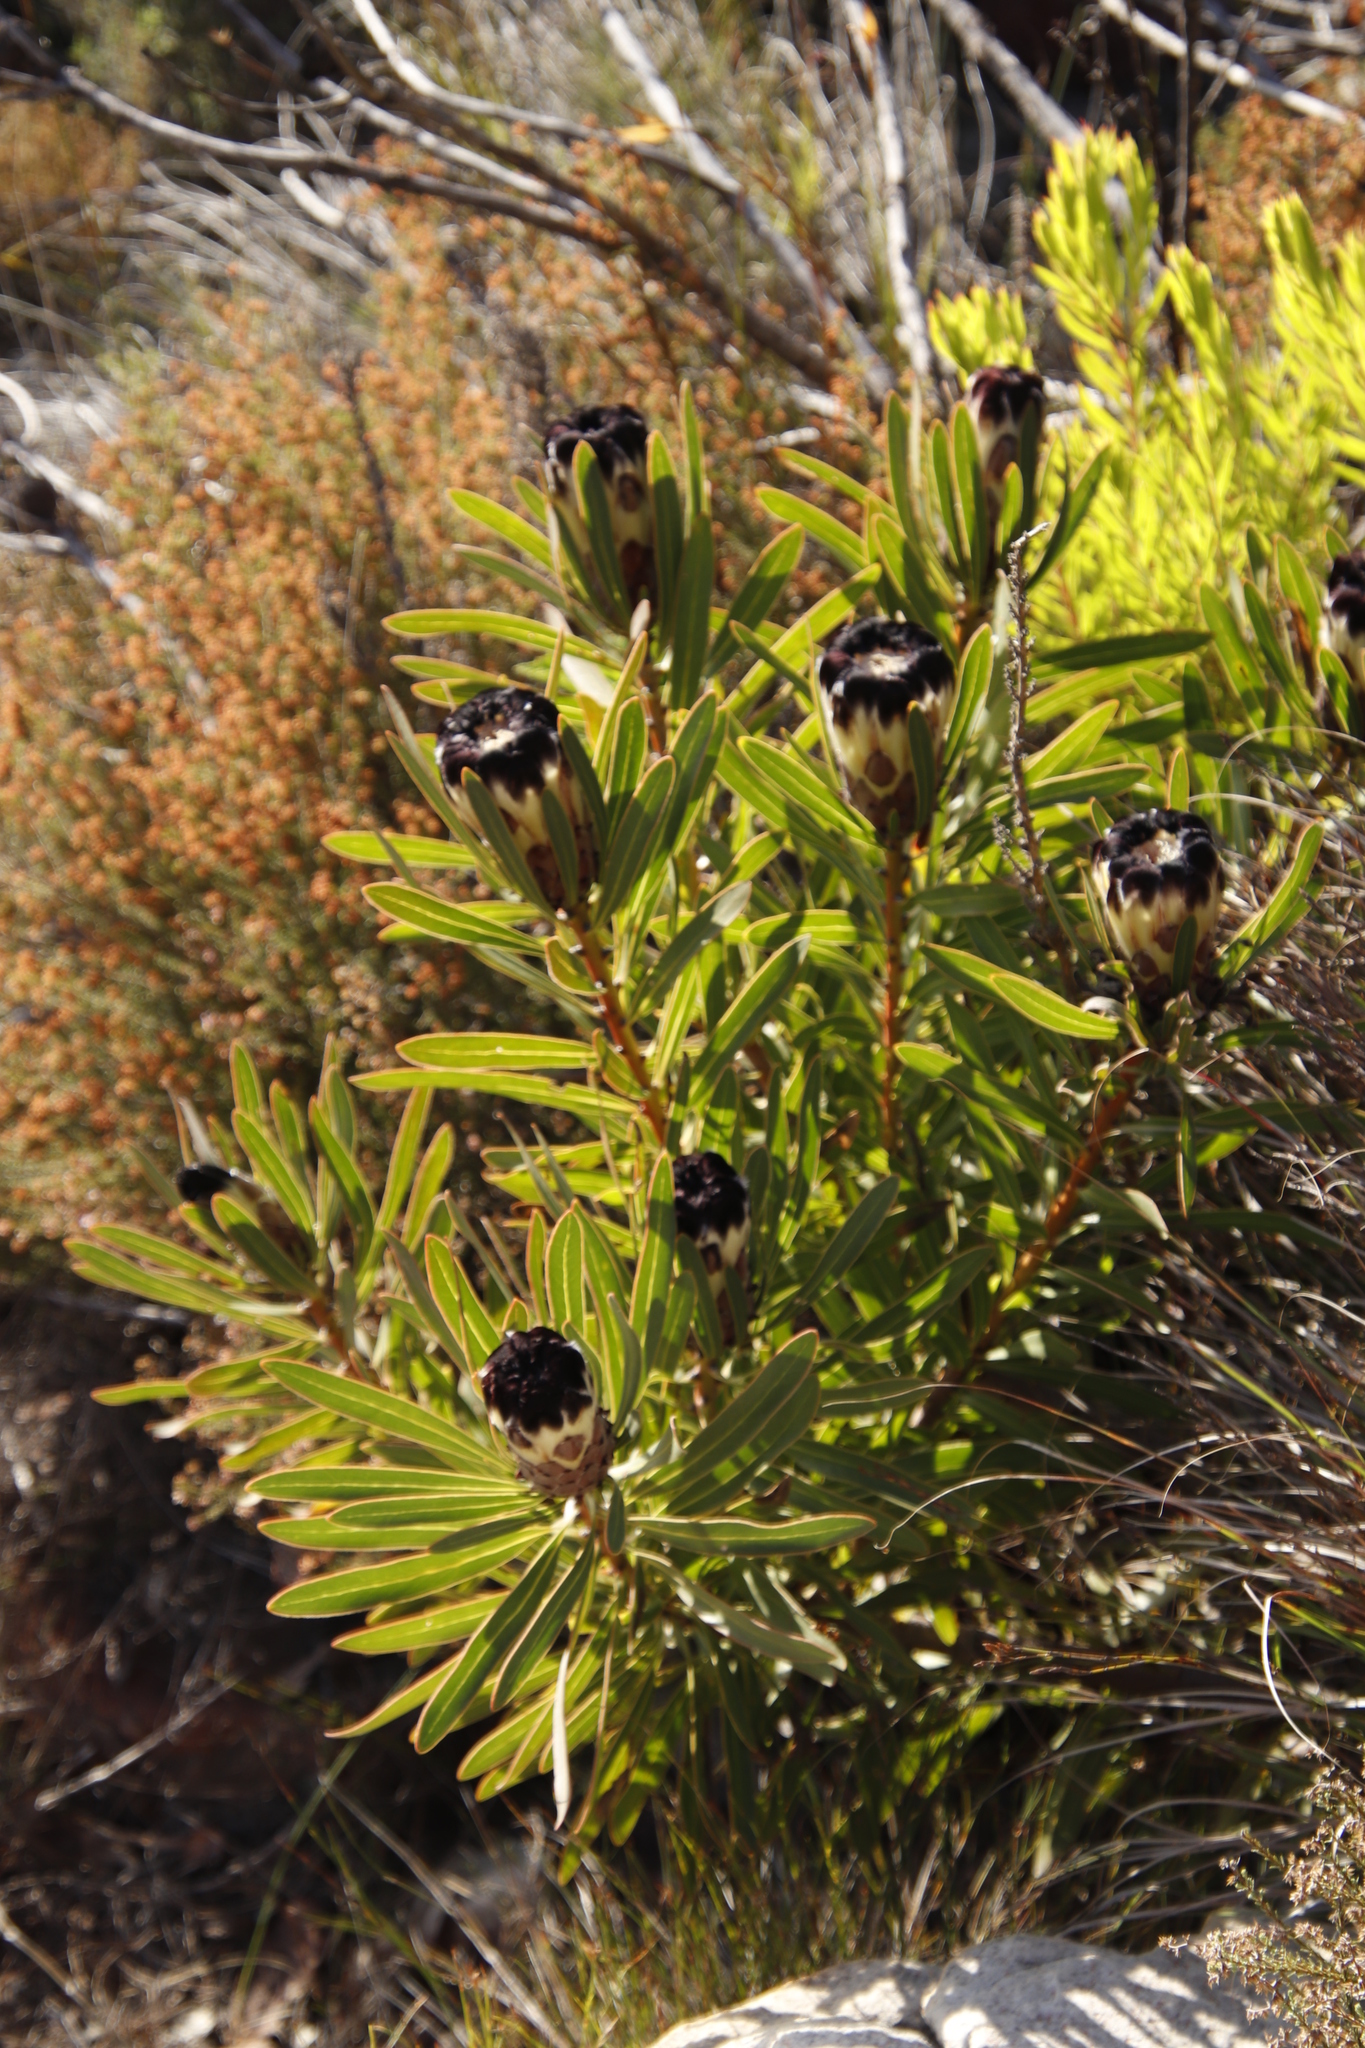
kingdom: Plantae
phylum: Tracheophyta
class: Magnoliopsida
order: Proteales
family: Proteaceae
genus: Protea
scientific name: Protea lepidocarpodendron
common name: Black-bearded protea
